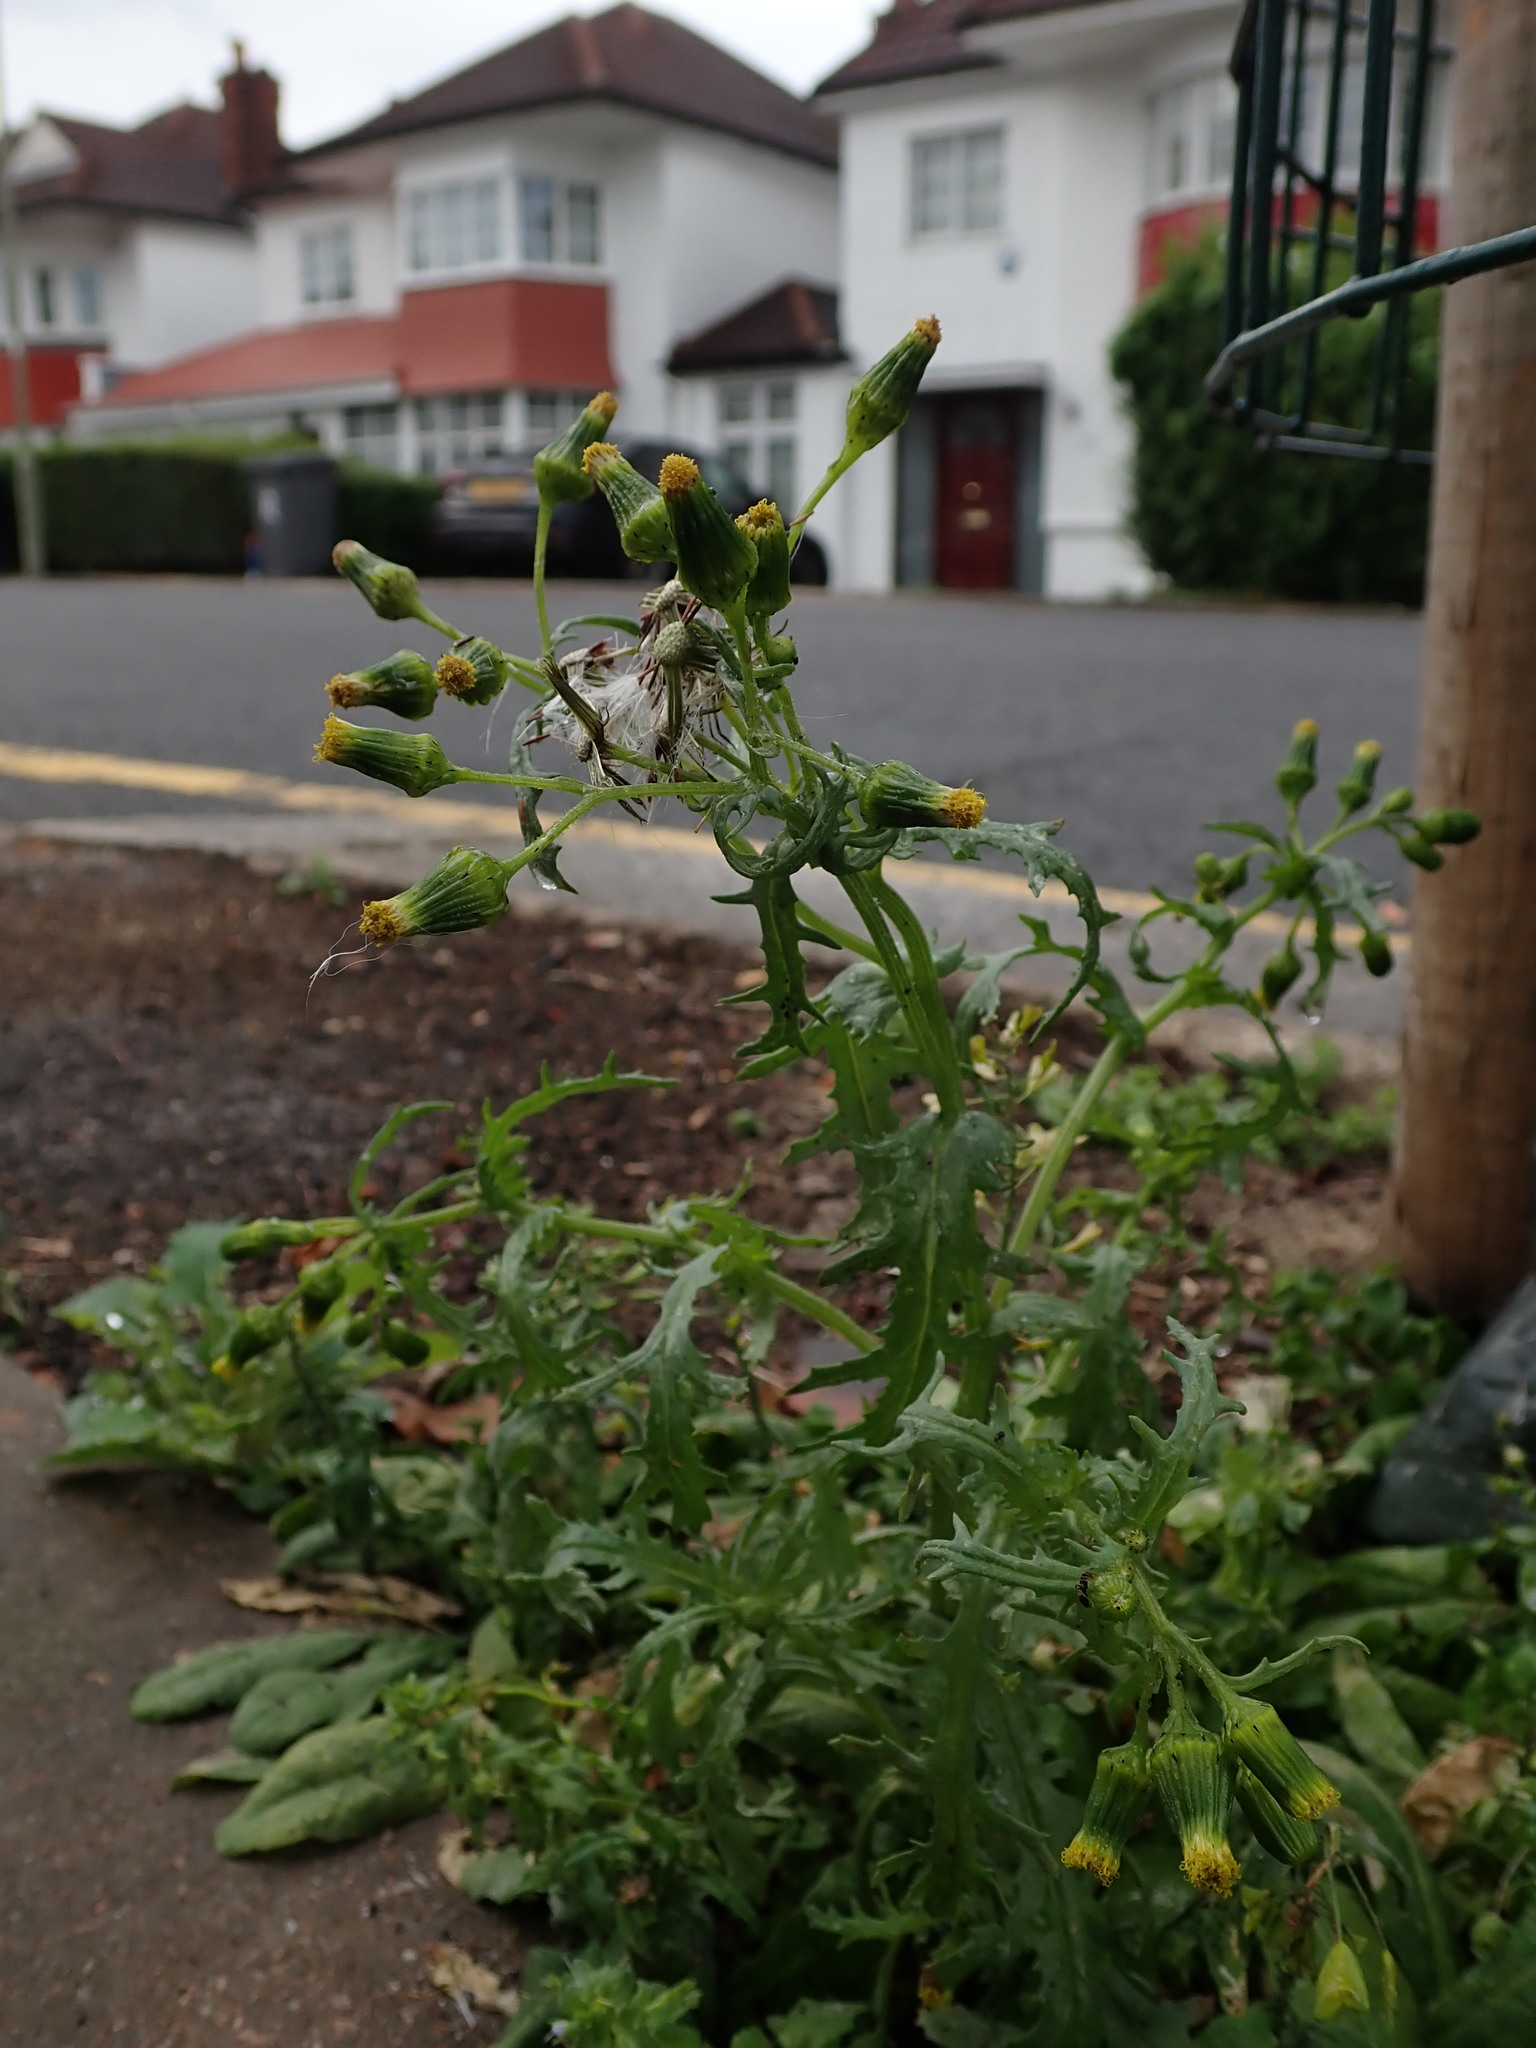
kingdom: Plantae
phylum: Tracheophyta
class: Magnoliopsida
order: Asterales
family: Asteraceae
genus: Senecio
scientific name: Senecio vulgaris
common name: Old-man-in-the-spring
